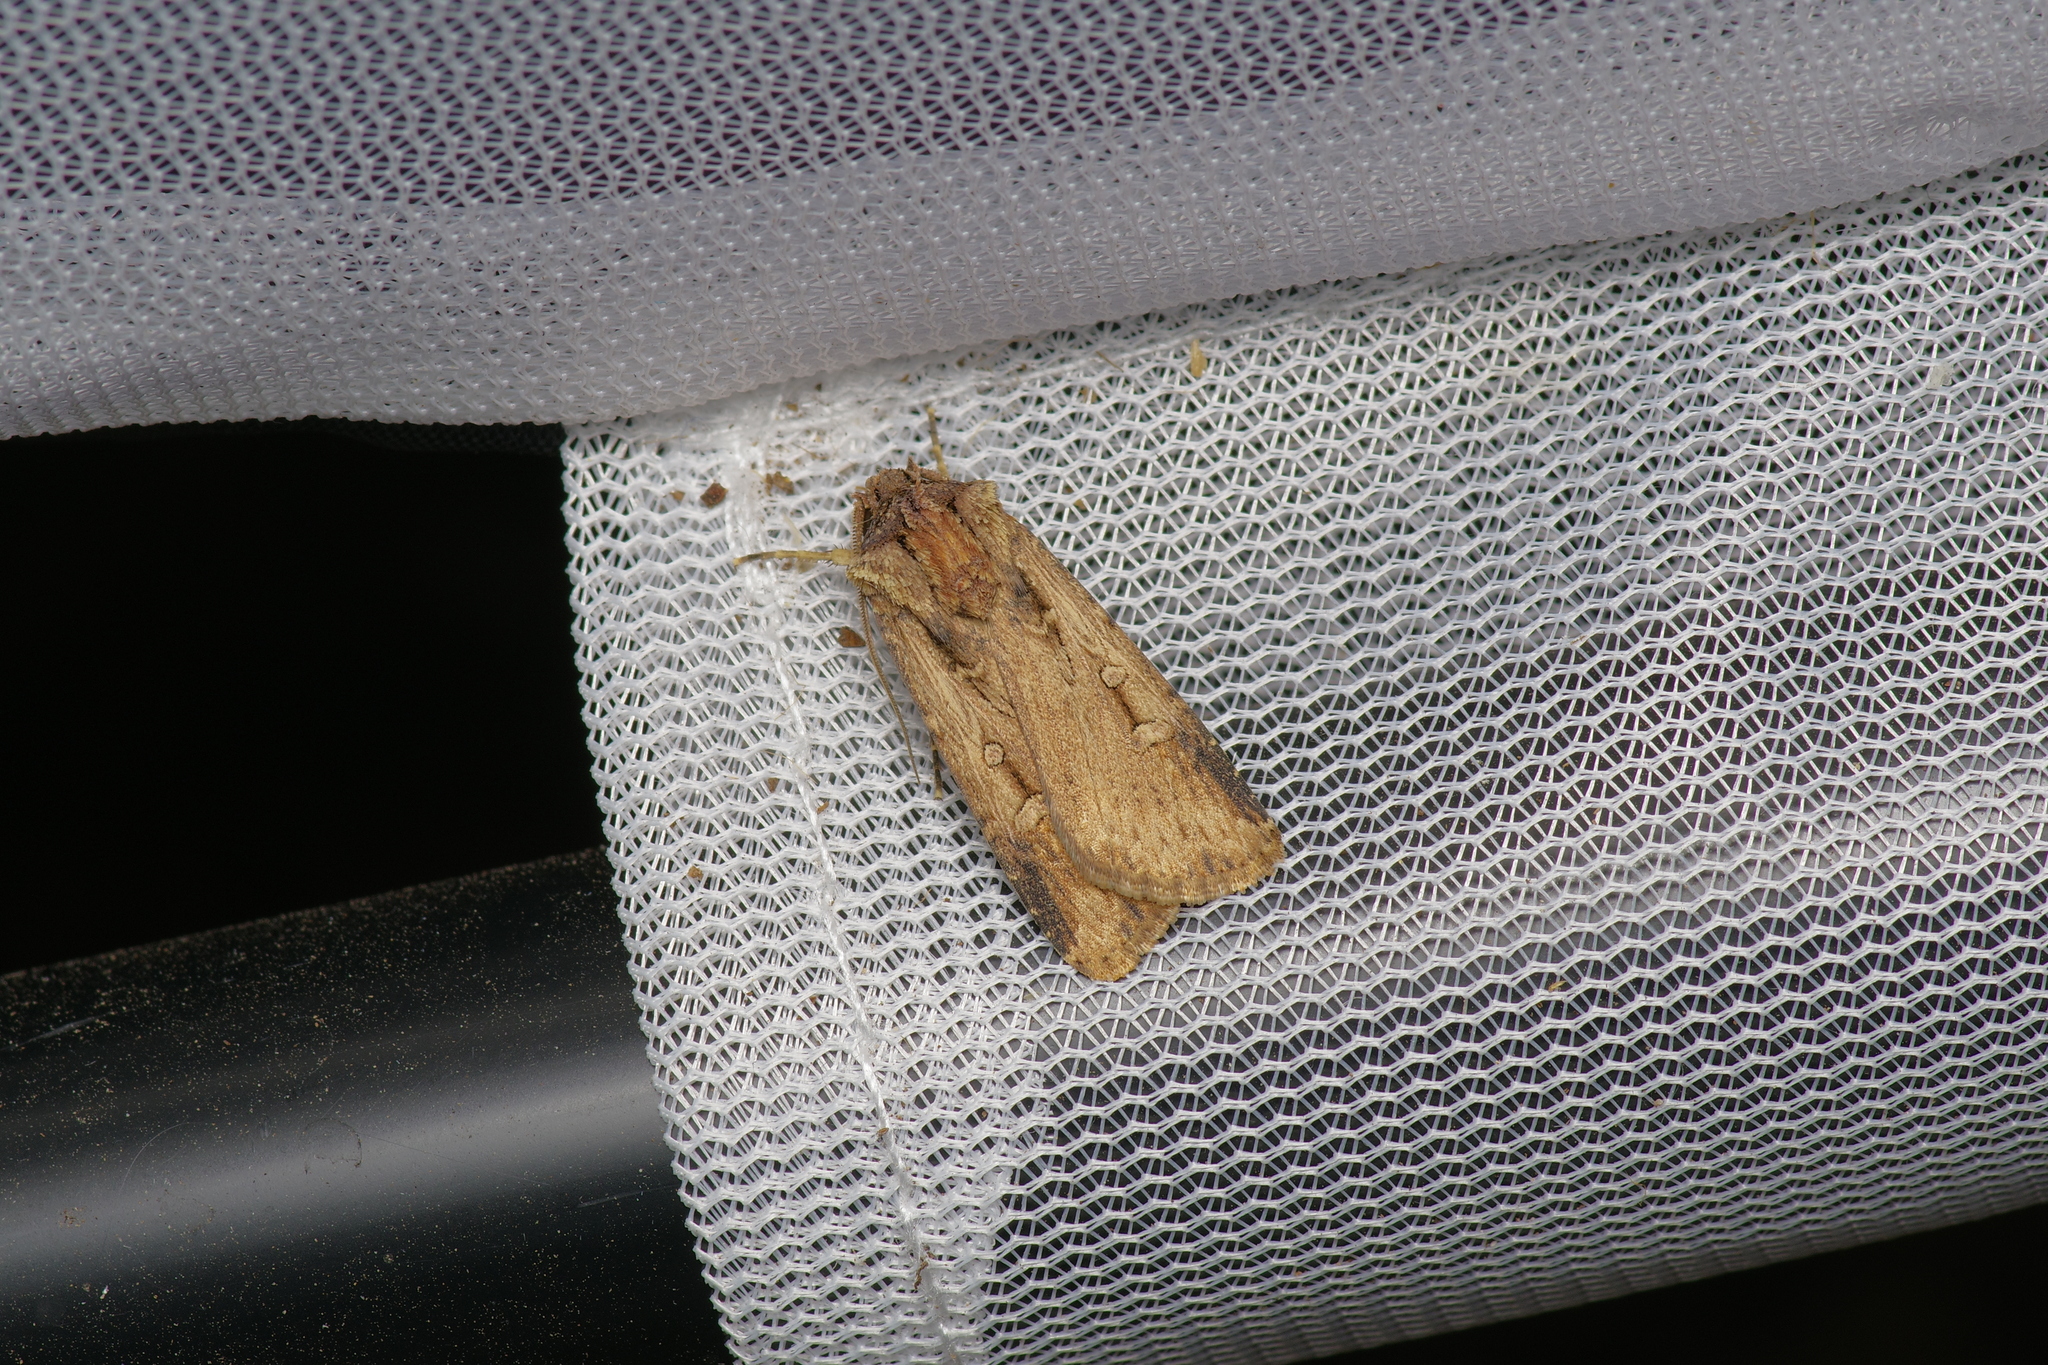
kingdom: Animalia
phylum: Arthropoda
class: Insecta
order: Lepidoptera
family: Noctuidae
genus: Feltia
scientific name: Feltia subterranea
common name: Granulate cutworm
